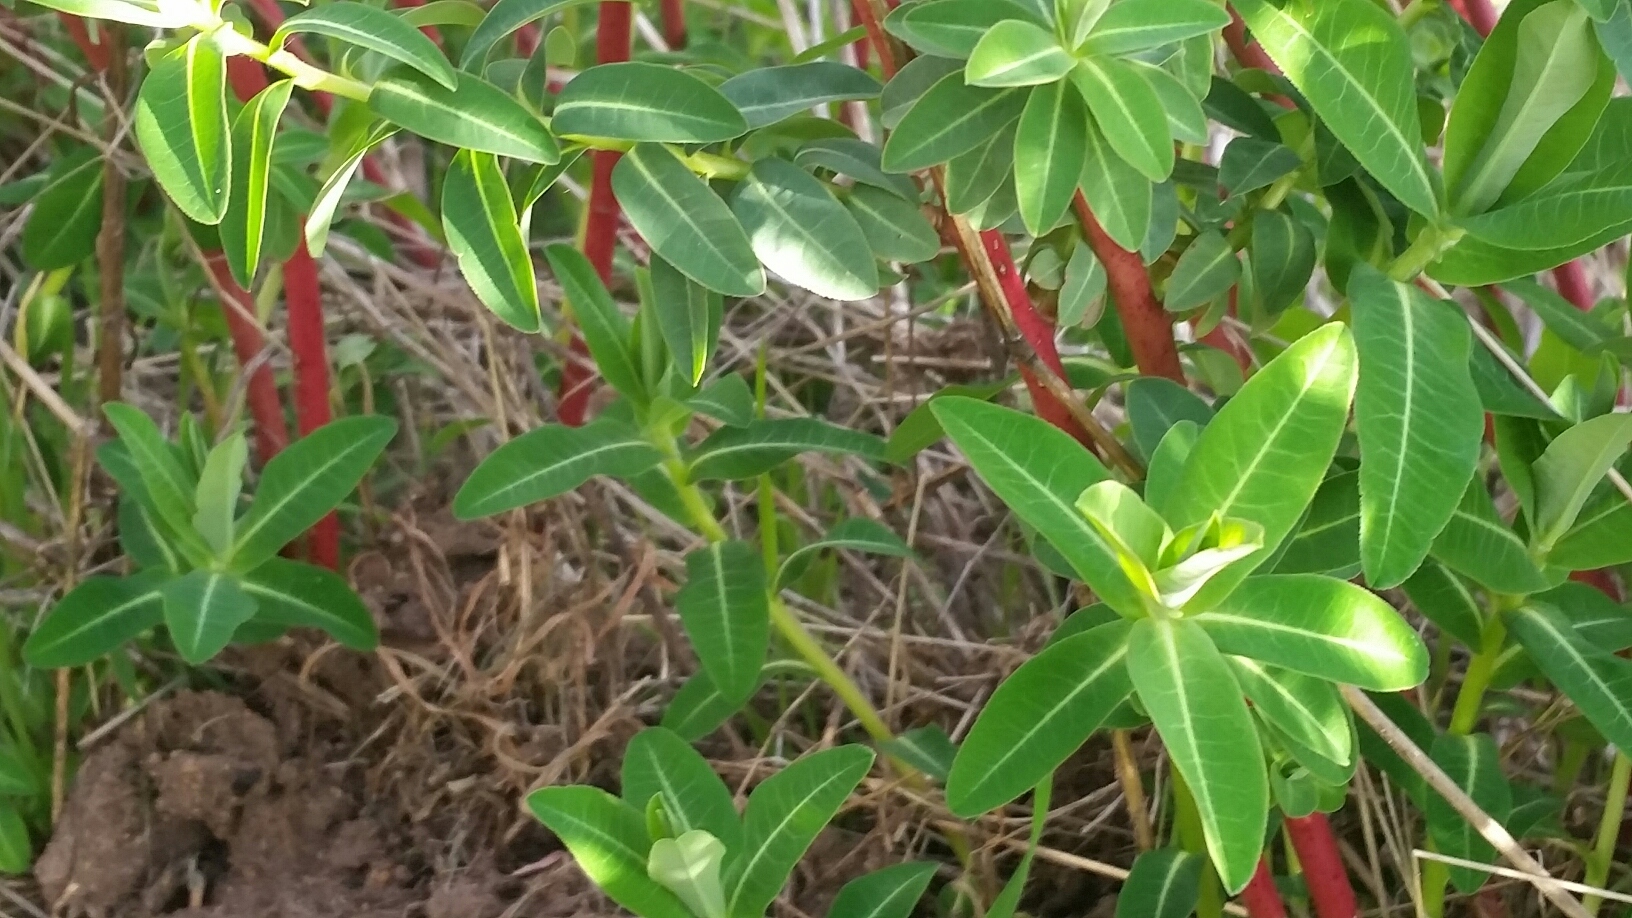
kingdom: Plantae
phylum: Tracheophyta
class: Magnoliopsida
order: Malpighiales
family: Euphorbiaceae
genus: Euphorbia
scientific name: Euphorbia oblongata
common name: Balkan spurge
